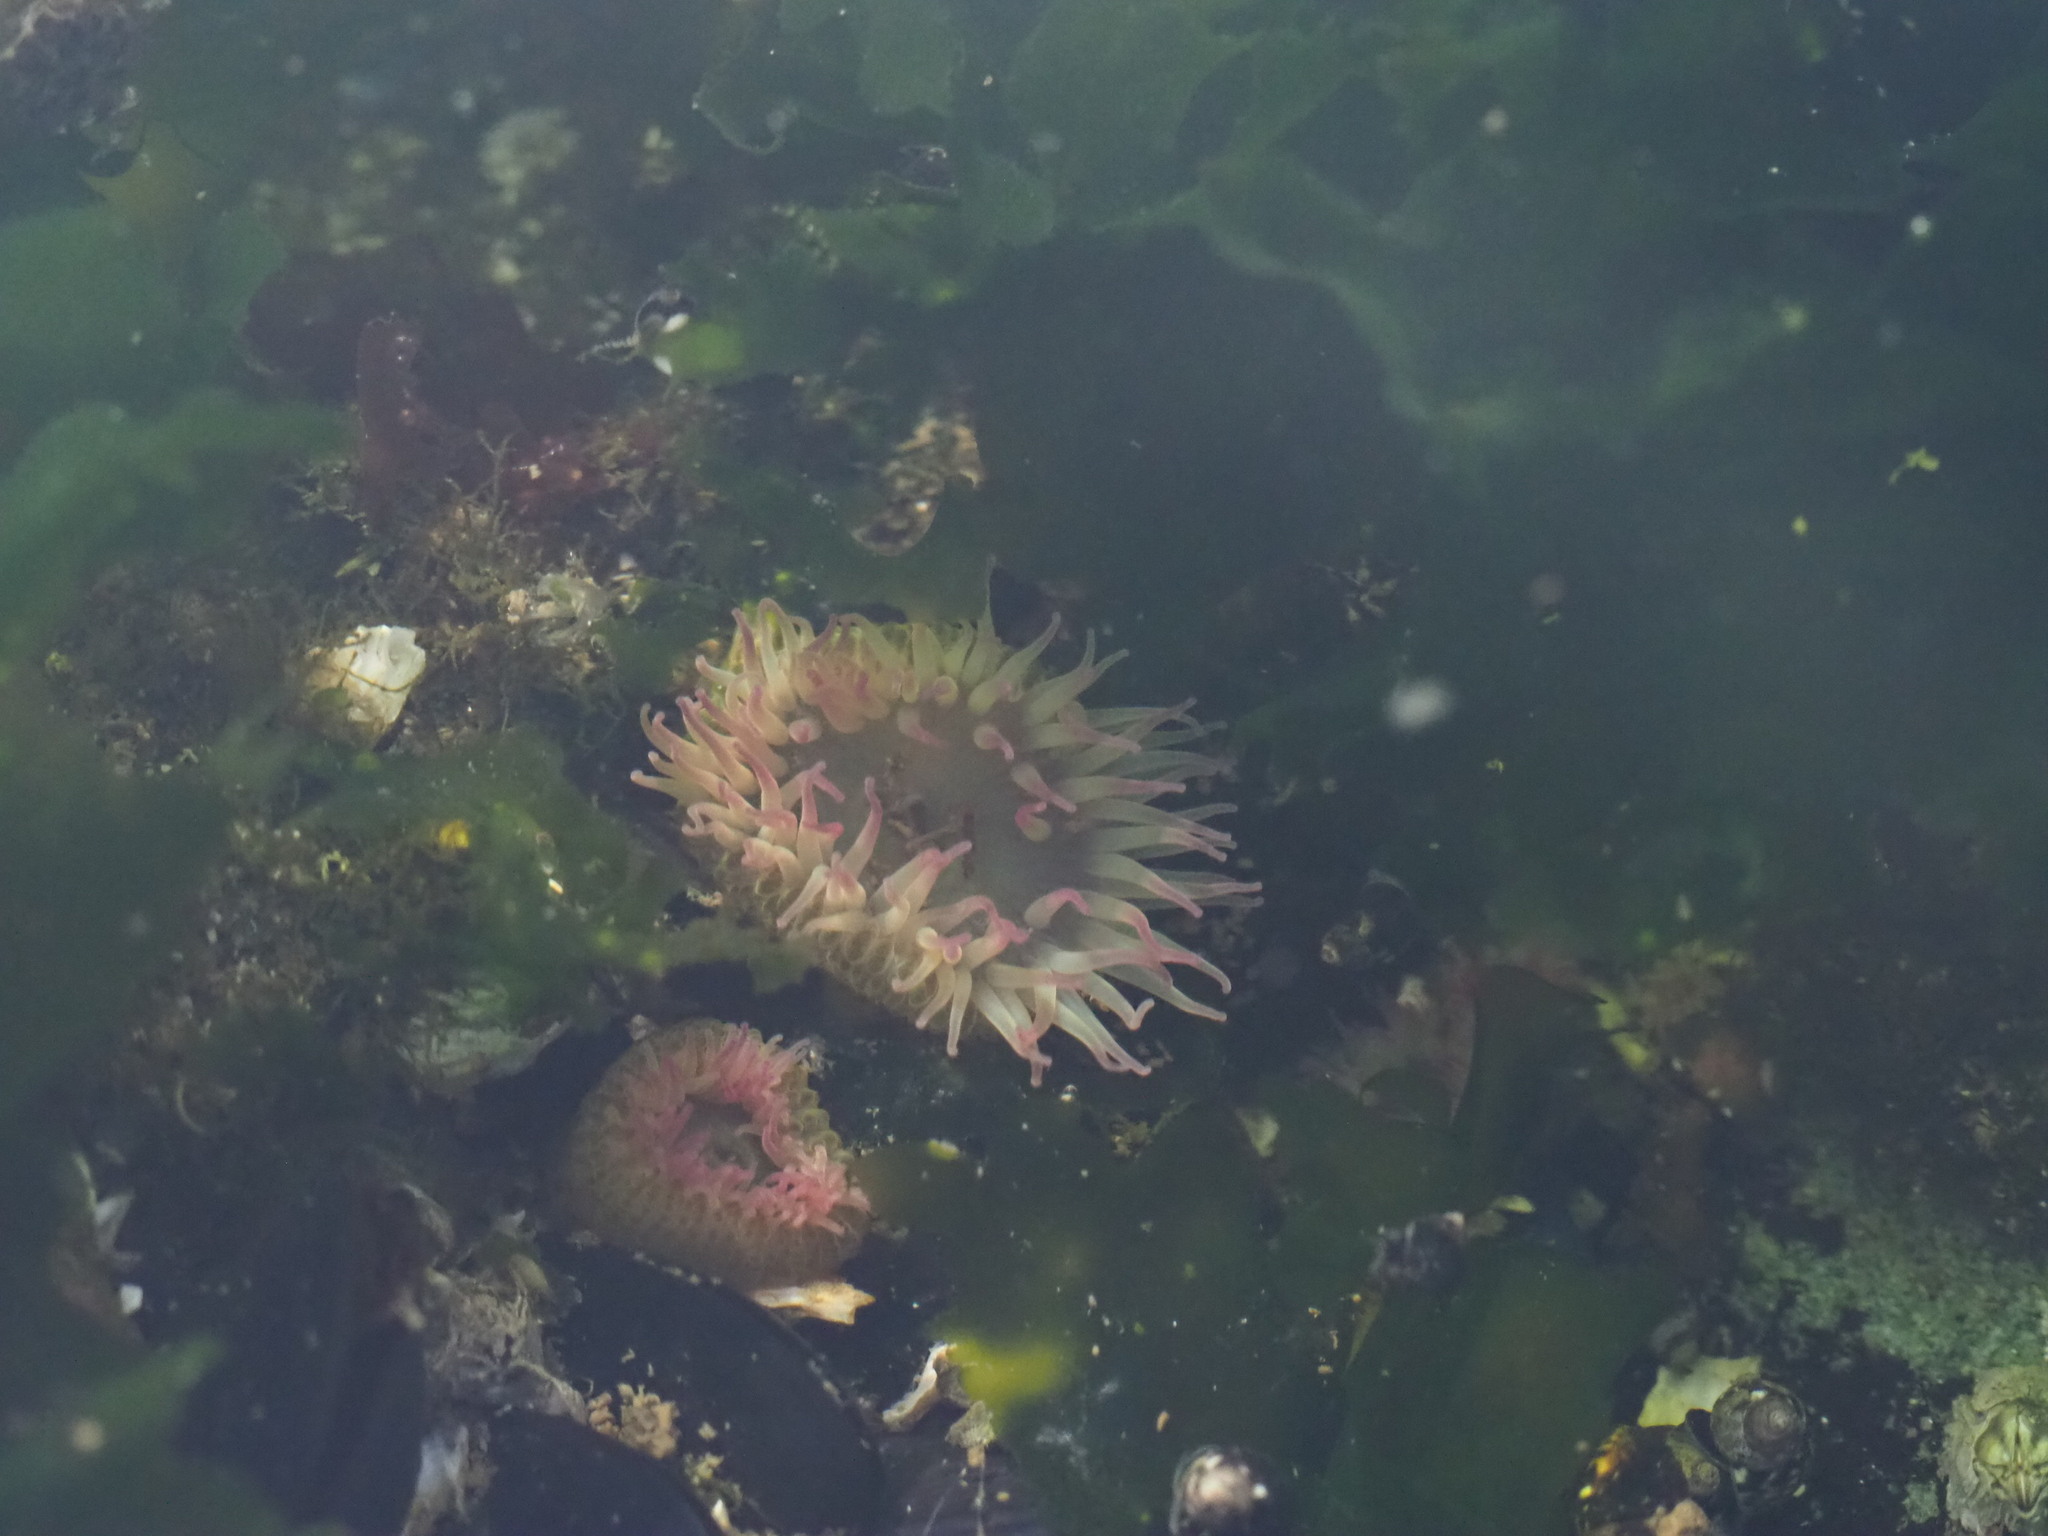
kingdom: Animalia
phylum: Cnidaria
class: Anthozoa
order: Actiniaria
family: Actiniidae
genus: Anthopleura
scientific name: Anthopleura elegantissima
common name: Clonal anemone
